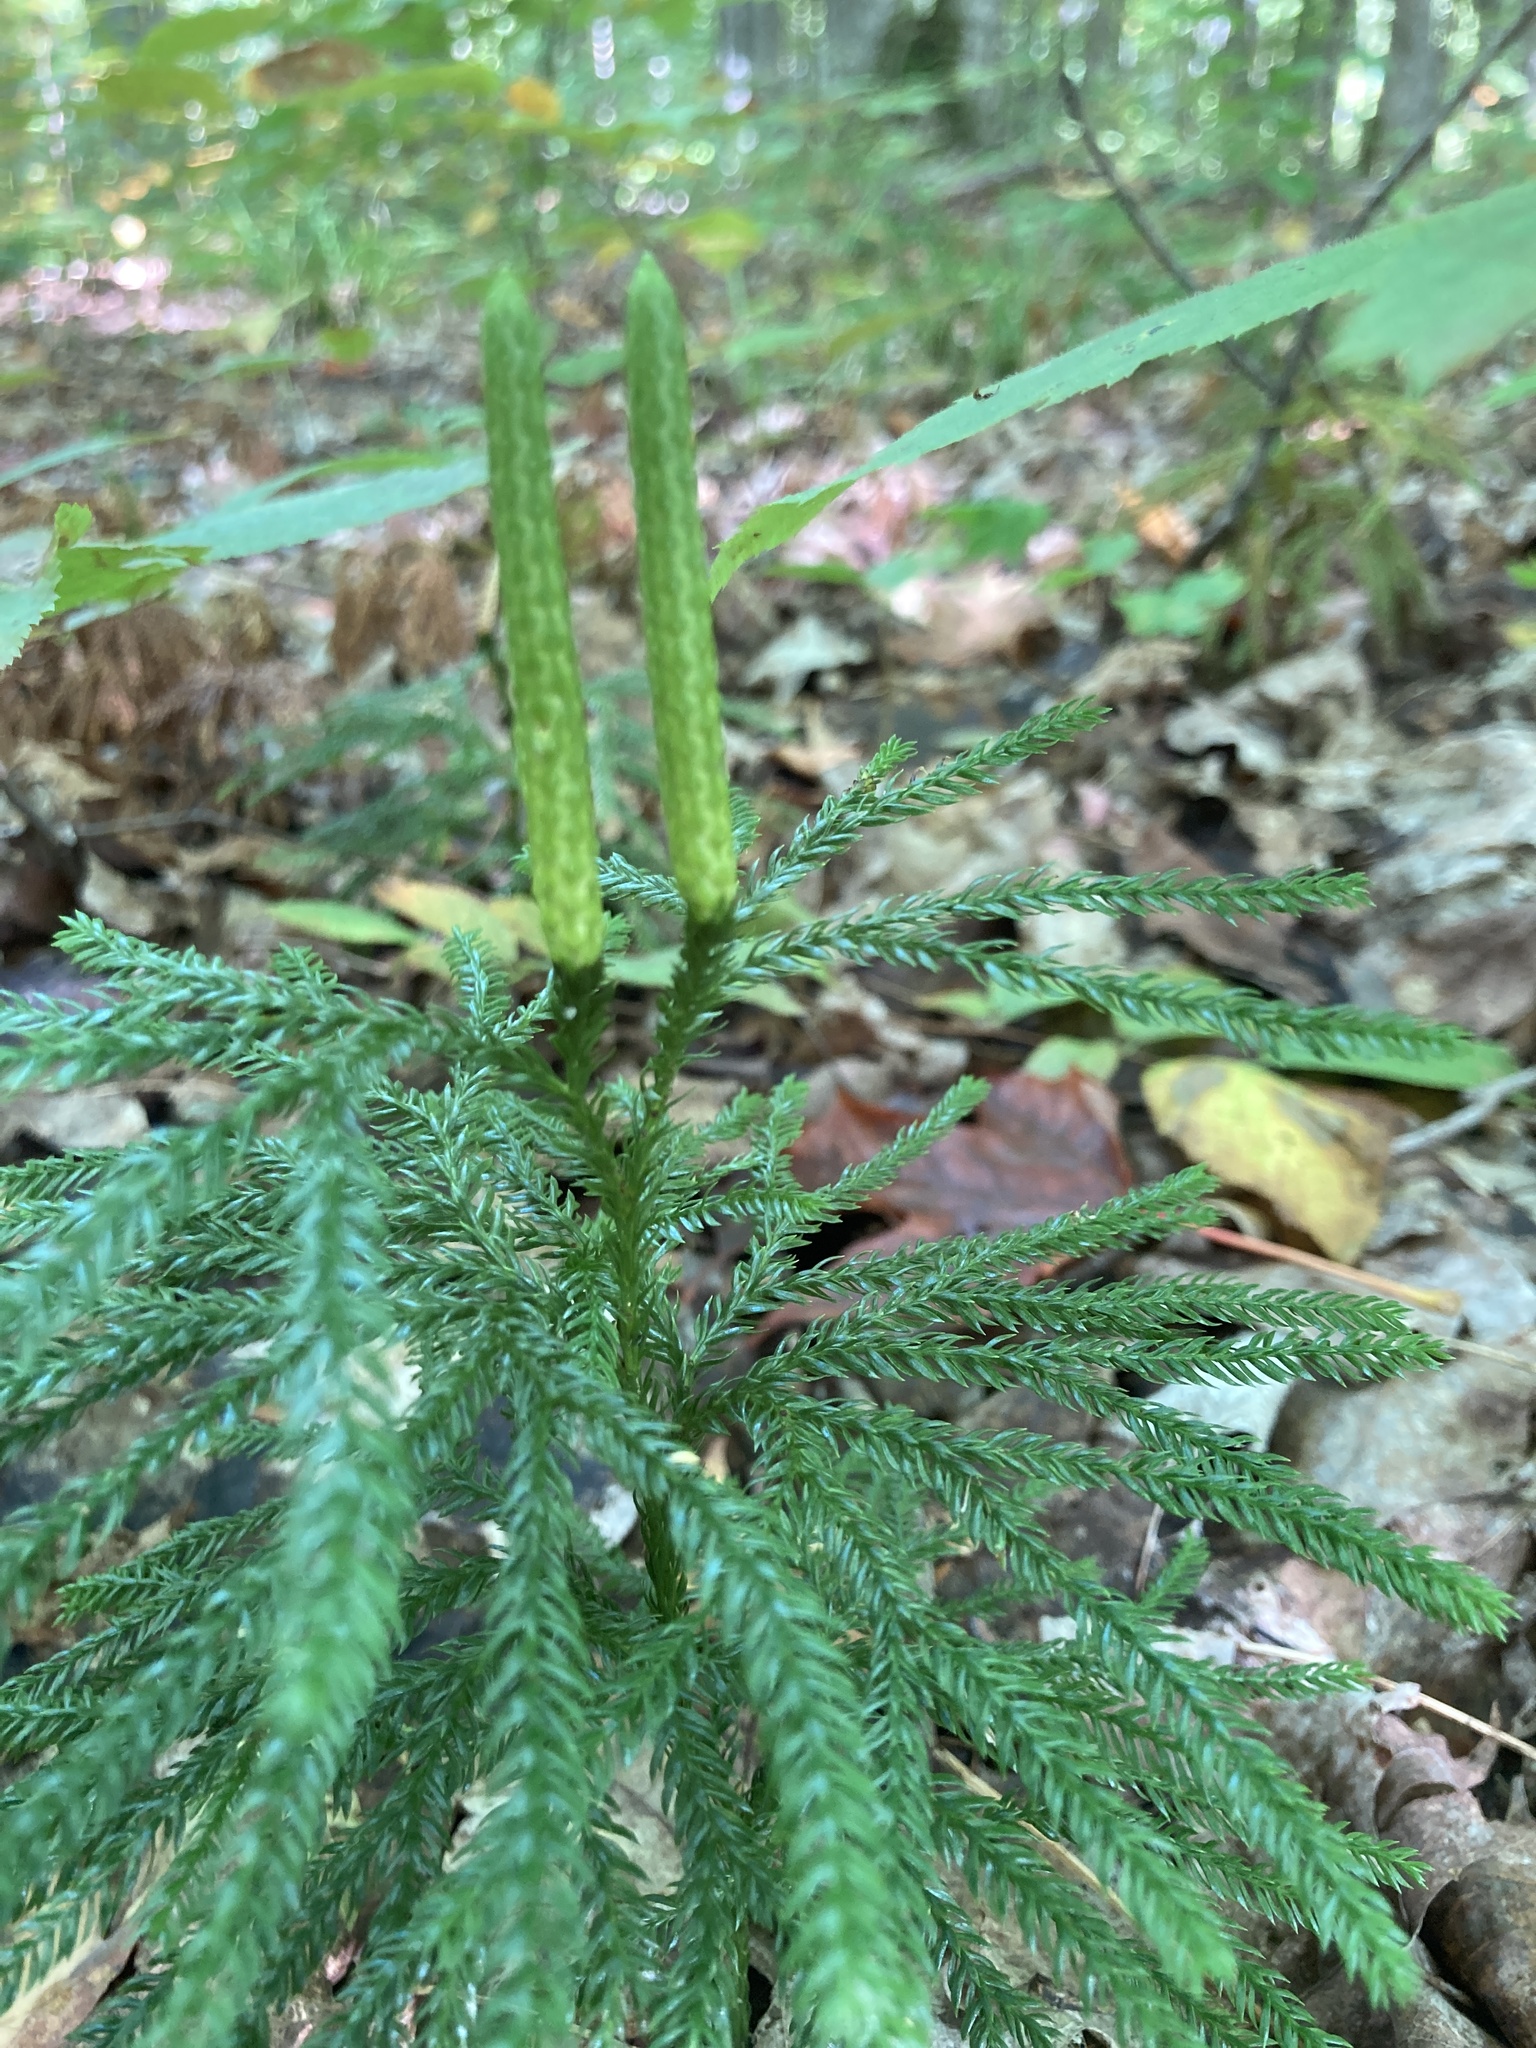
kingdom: Plantae
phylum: Tracheophyta
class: Lycopodiopsida
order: Lycopodiales
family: Lycopodiaceae
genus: Dendrolycopodium
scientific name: Dendrolycopodium obscurum
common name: Common ground-pine
